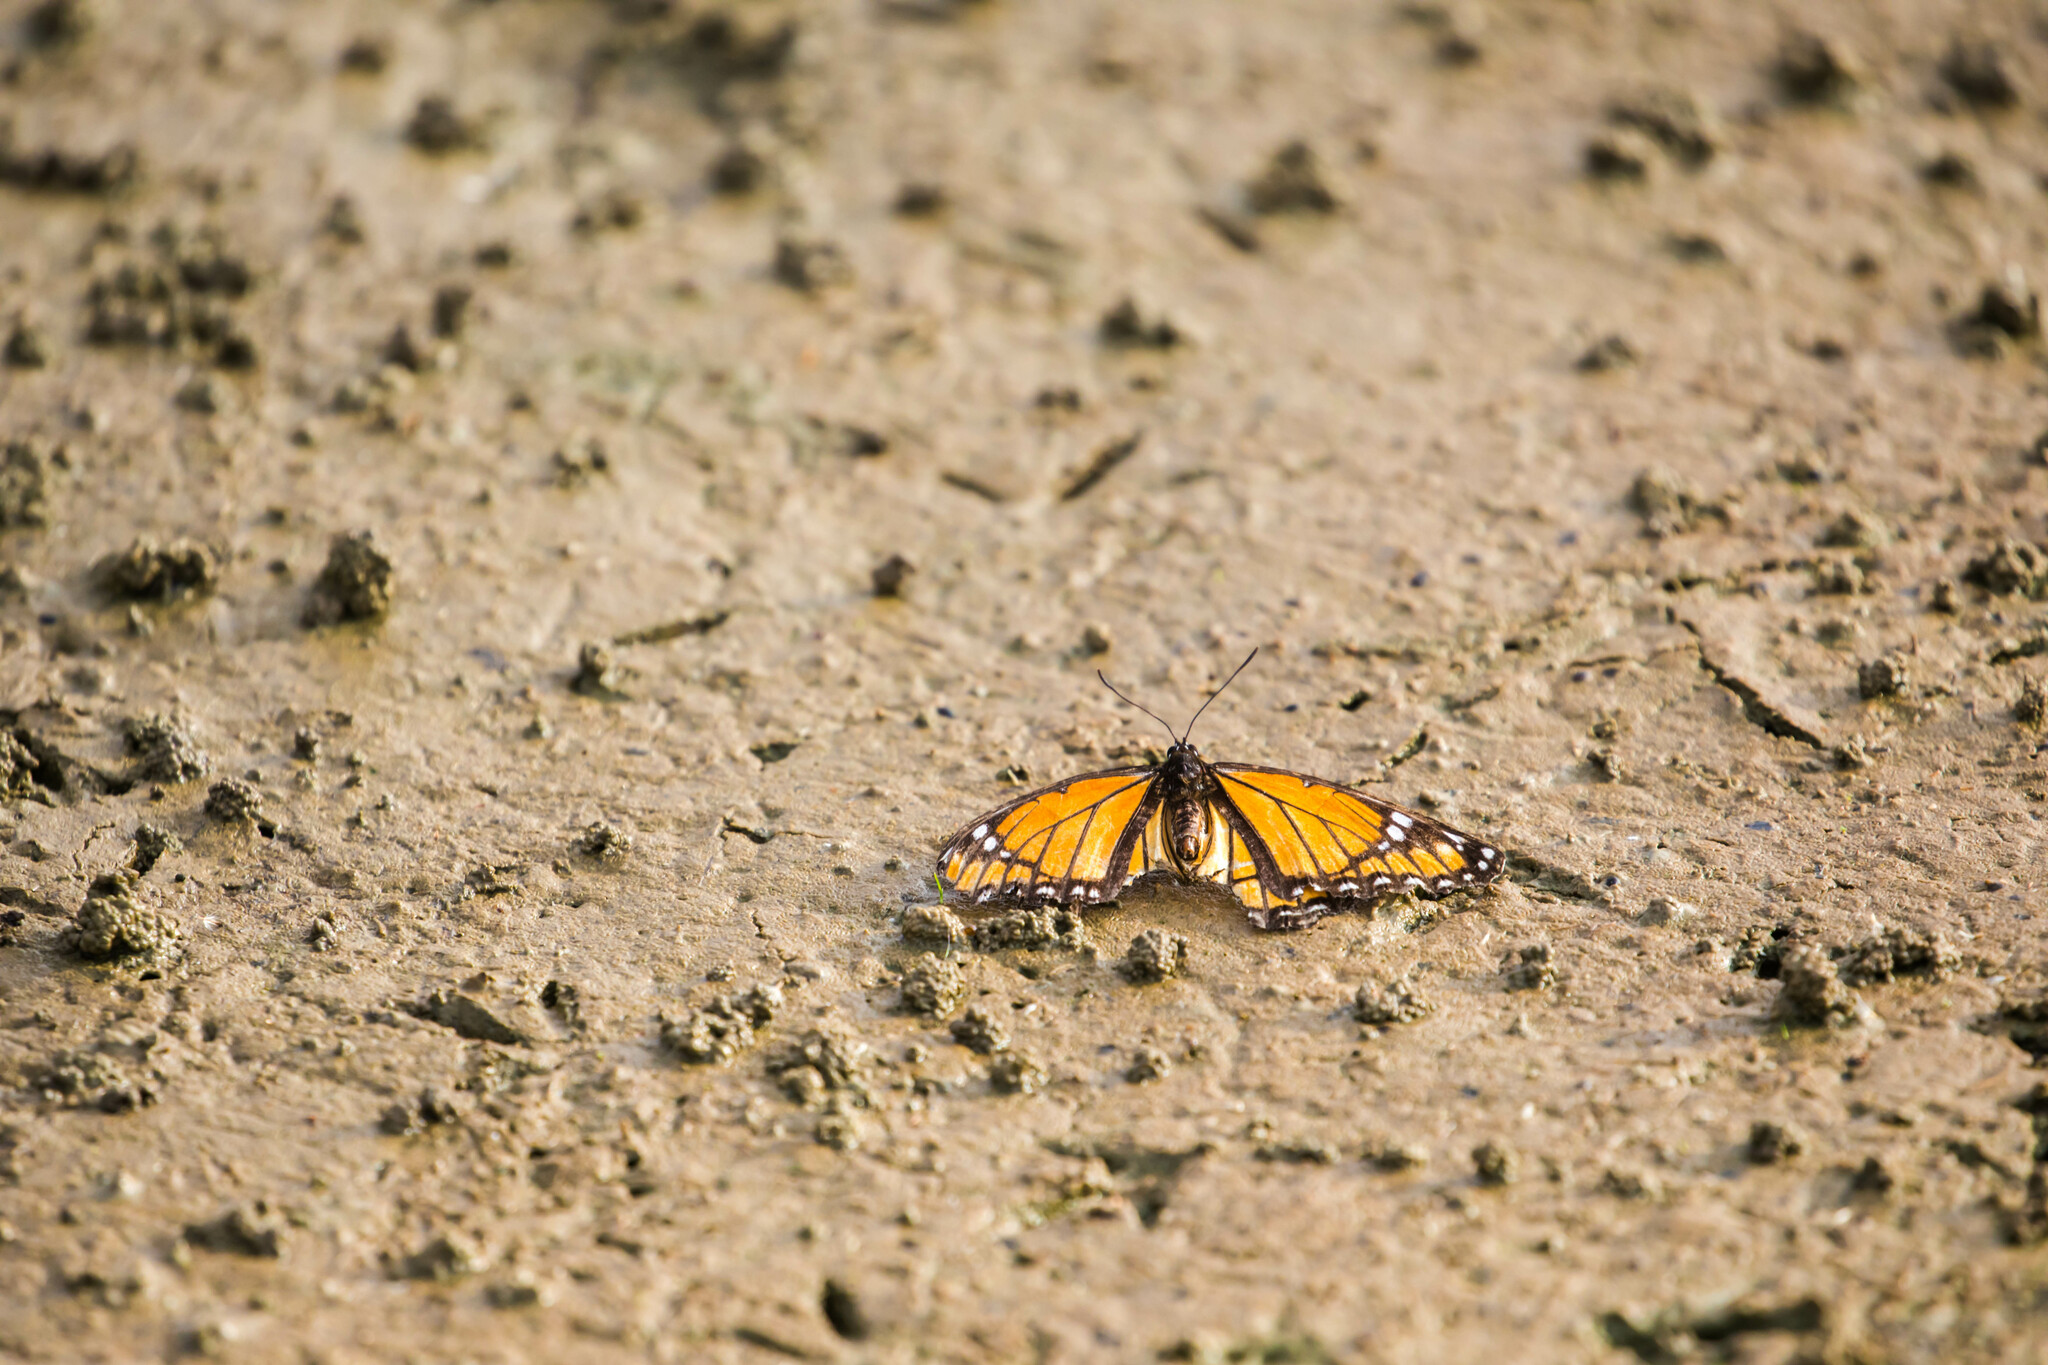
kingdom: Animalia
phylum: Arthropoda
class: Insecta
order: Lepidoptera
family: Nymphalidae
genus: Limenitis
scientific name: Limenitis archippus
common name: Viceroy
